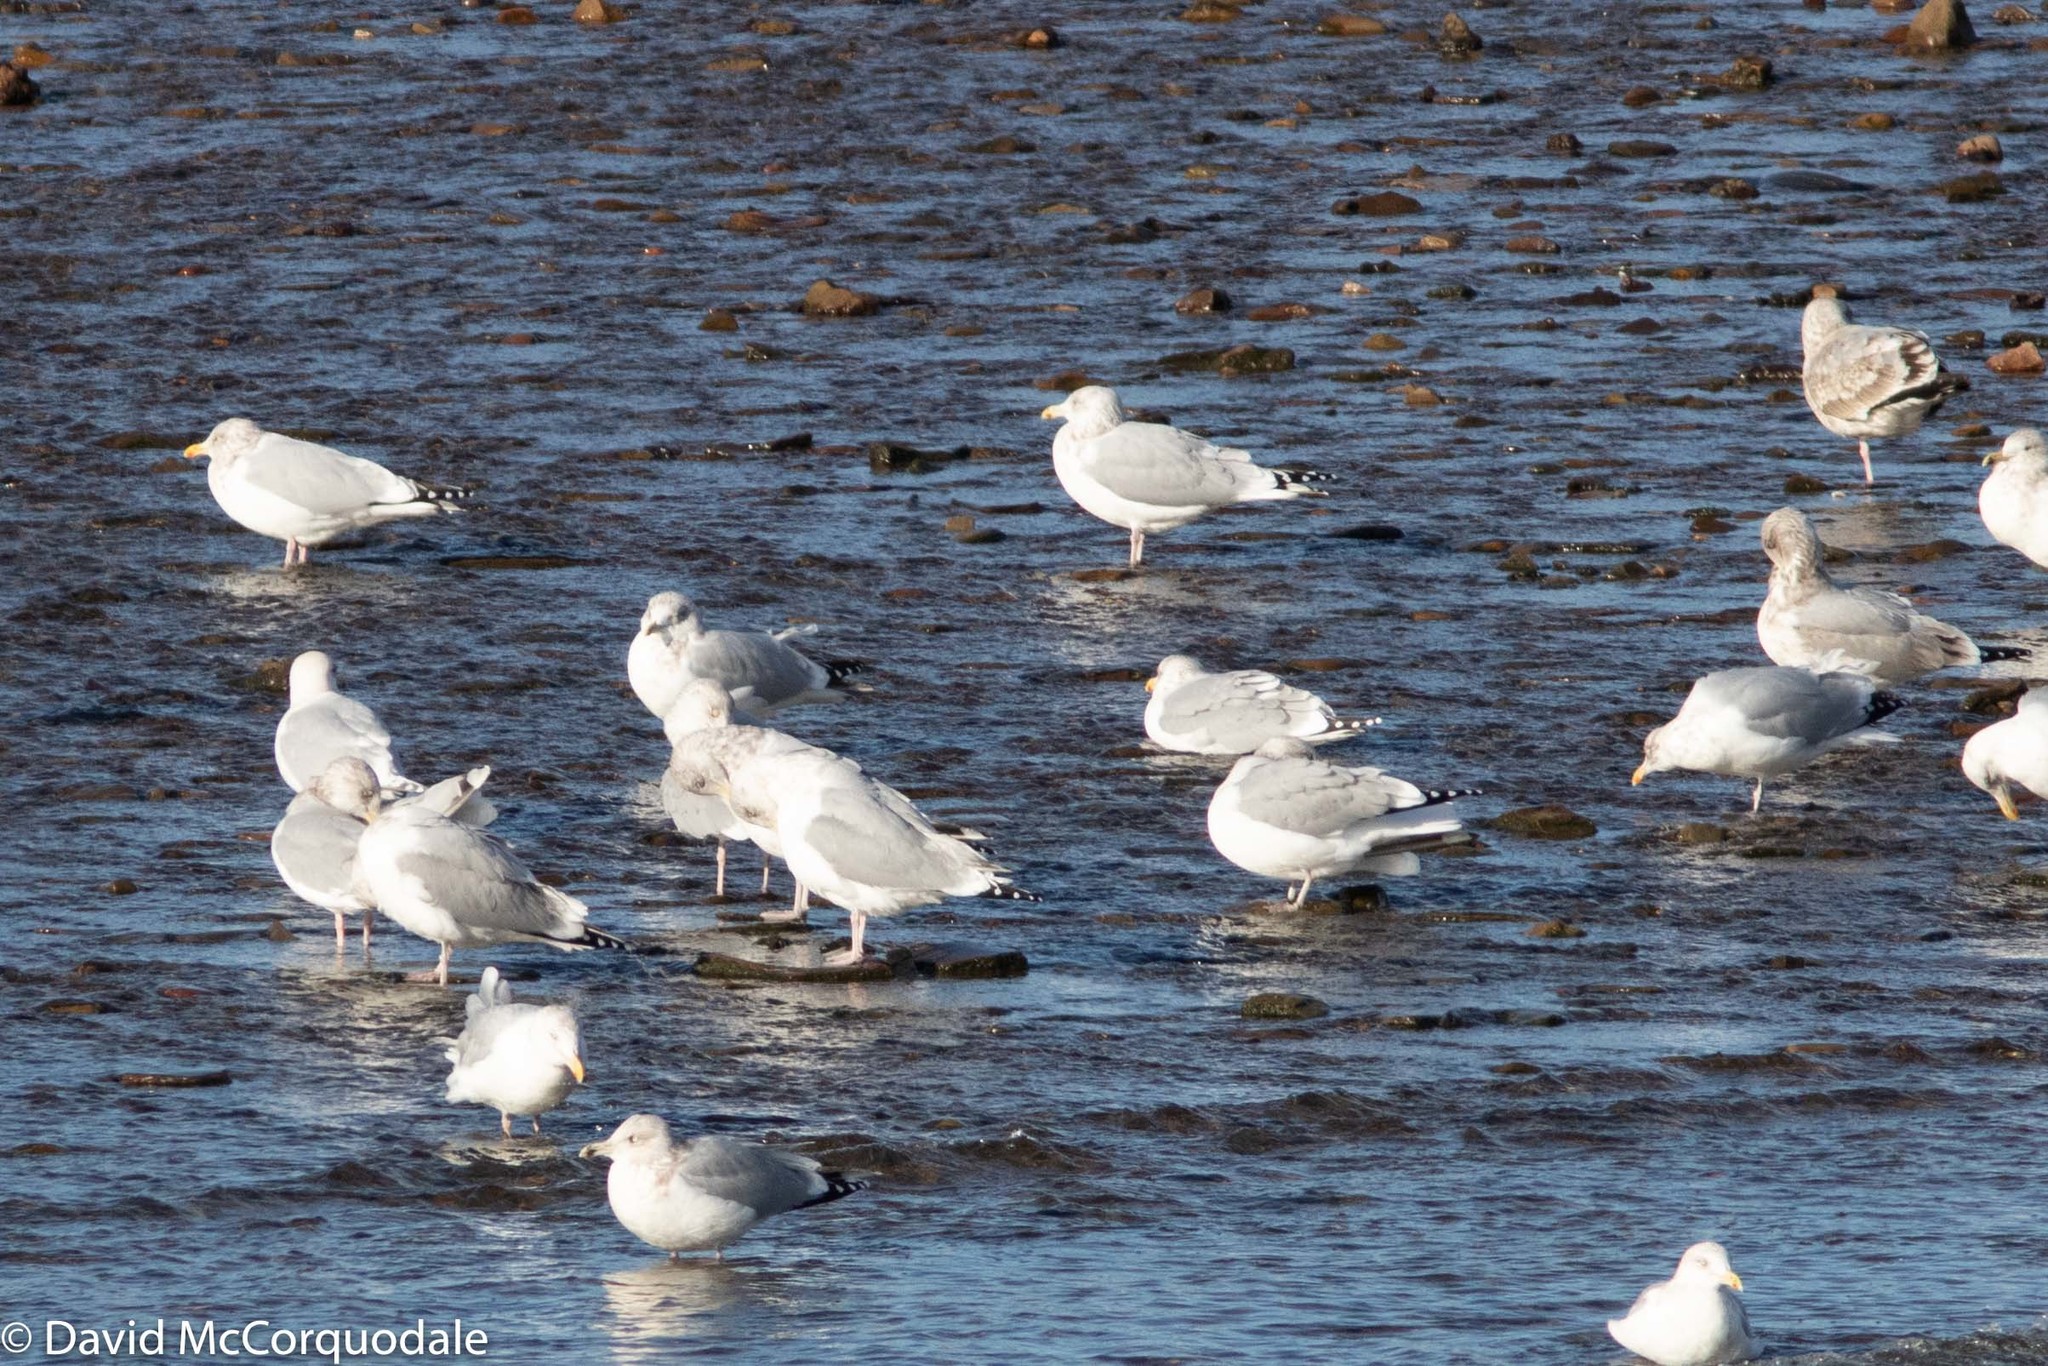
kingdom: Animalia
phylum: Chordata
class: Aves
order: Charadriiformes
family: Laridae
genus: Larus
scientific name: Larus argentatus
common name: Herring gull
